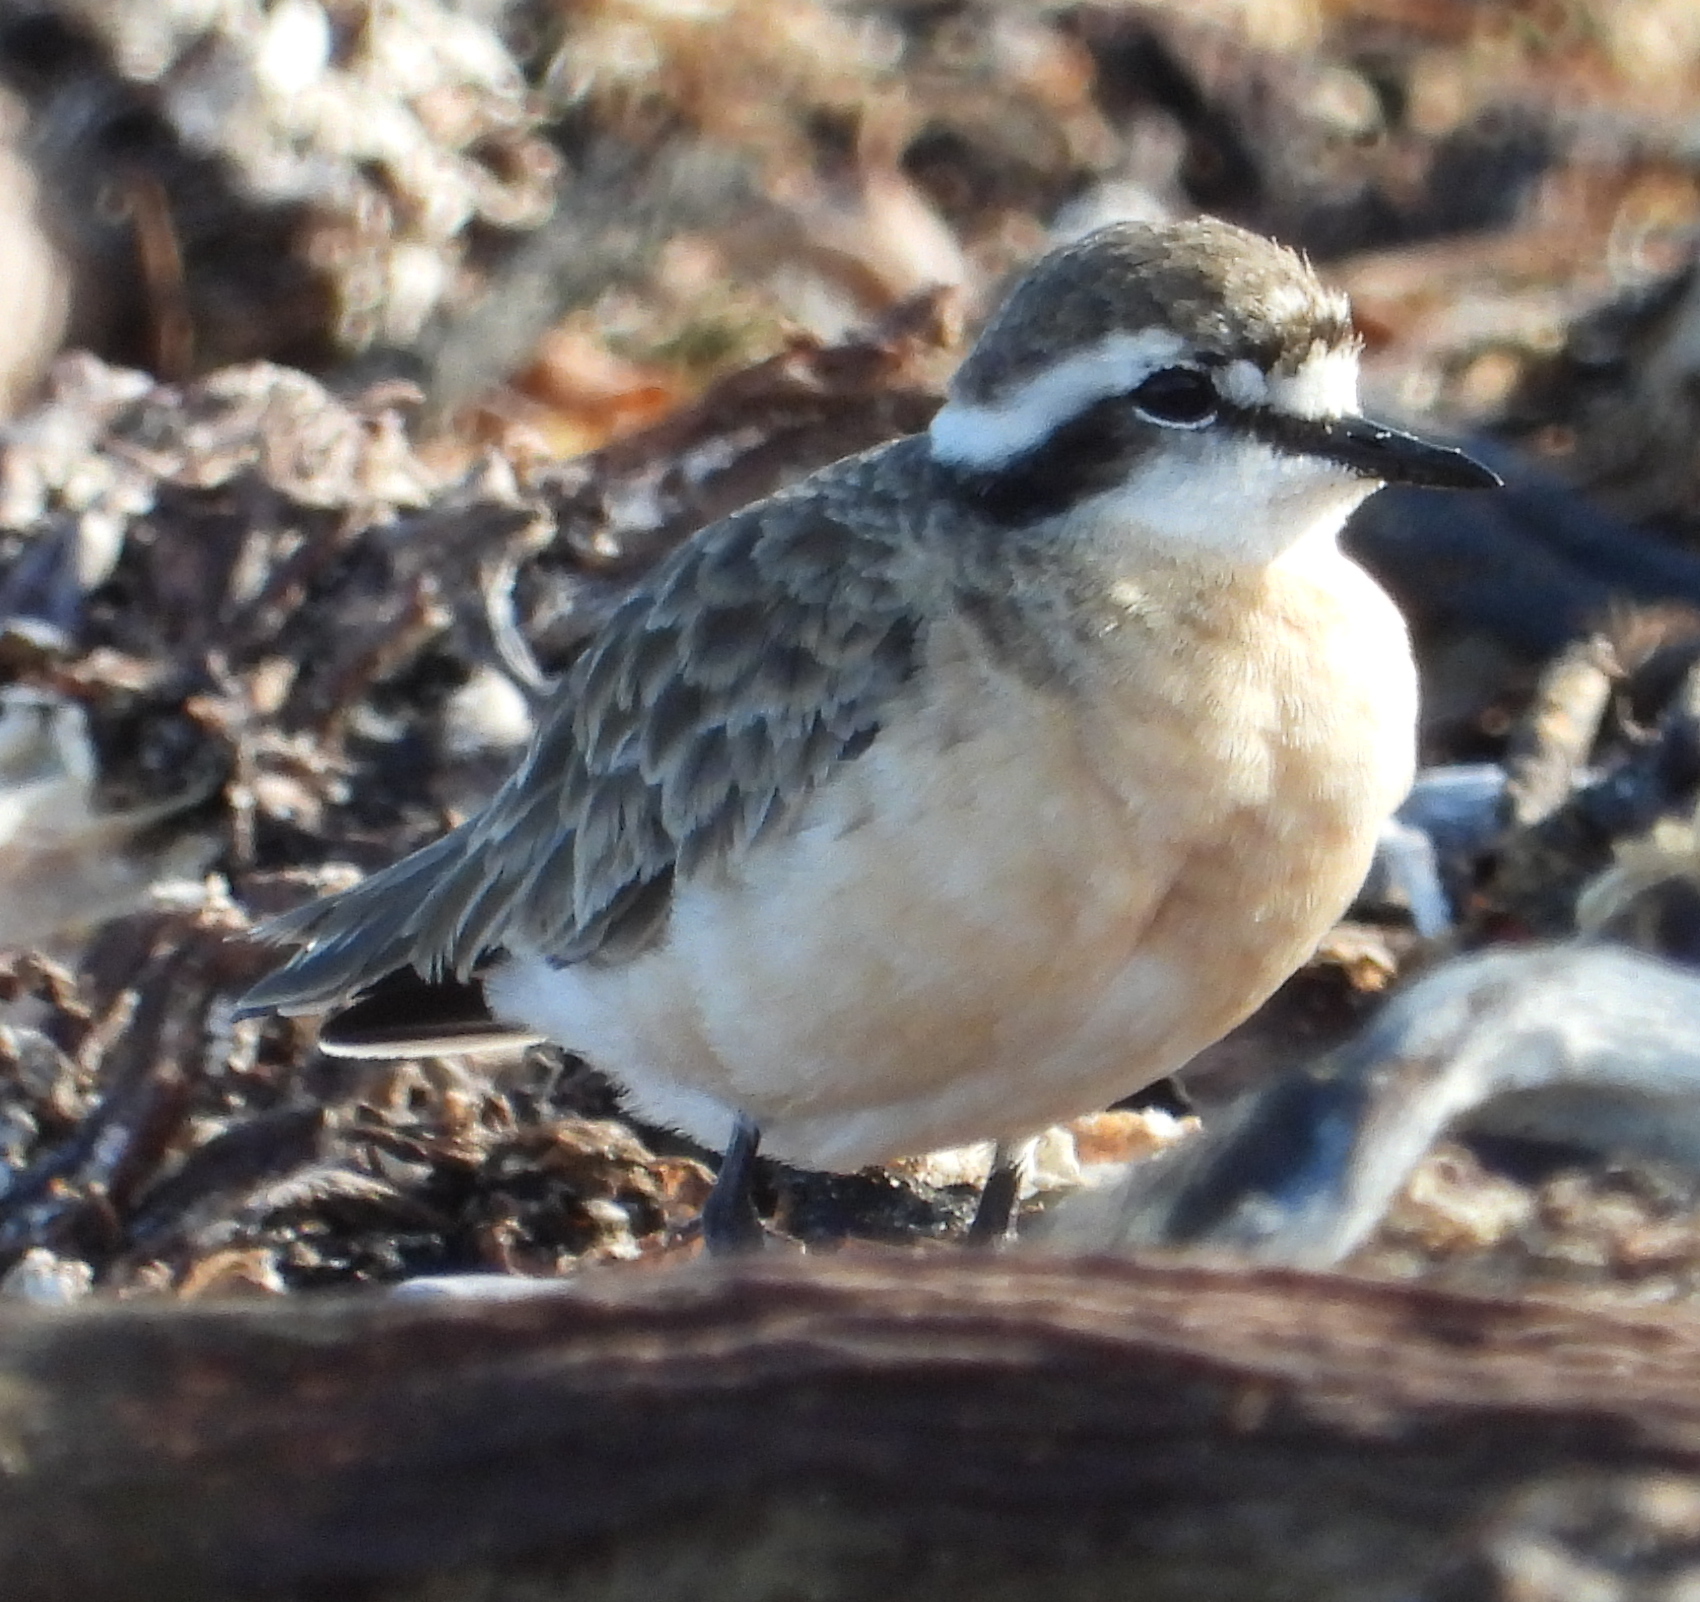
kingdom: Animalia
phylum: Chordata
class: Aves
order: Charadriiformes
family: Charadriidae
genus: Anarhynchus
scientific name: Anarhynchus
